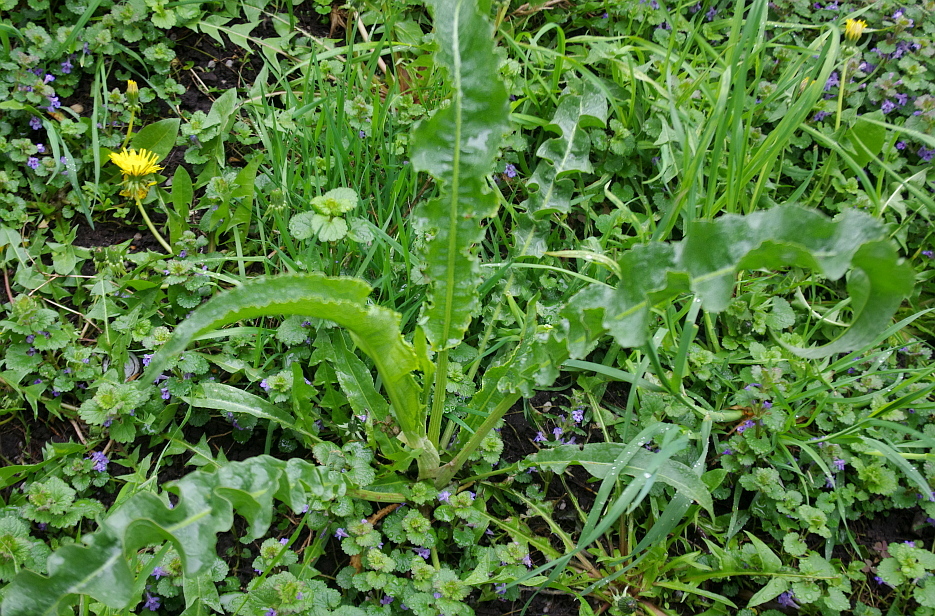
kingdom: Plantae
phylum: Tracheophyta
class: Magnoliopsida
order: Caryophyllales
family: Polygonaceae
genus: Rumex
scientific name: Rumex crispus
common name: Curled dock
